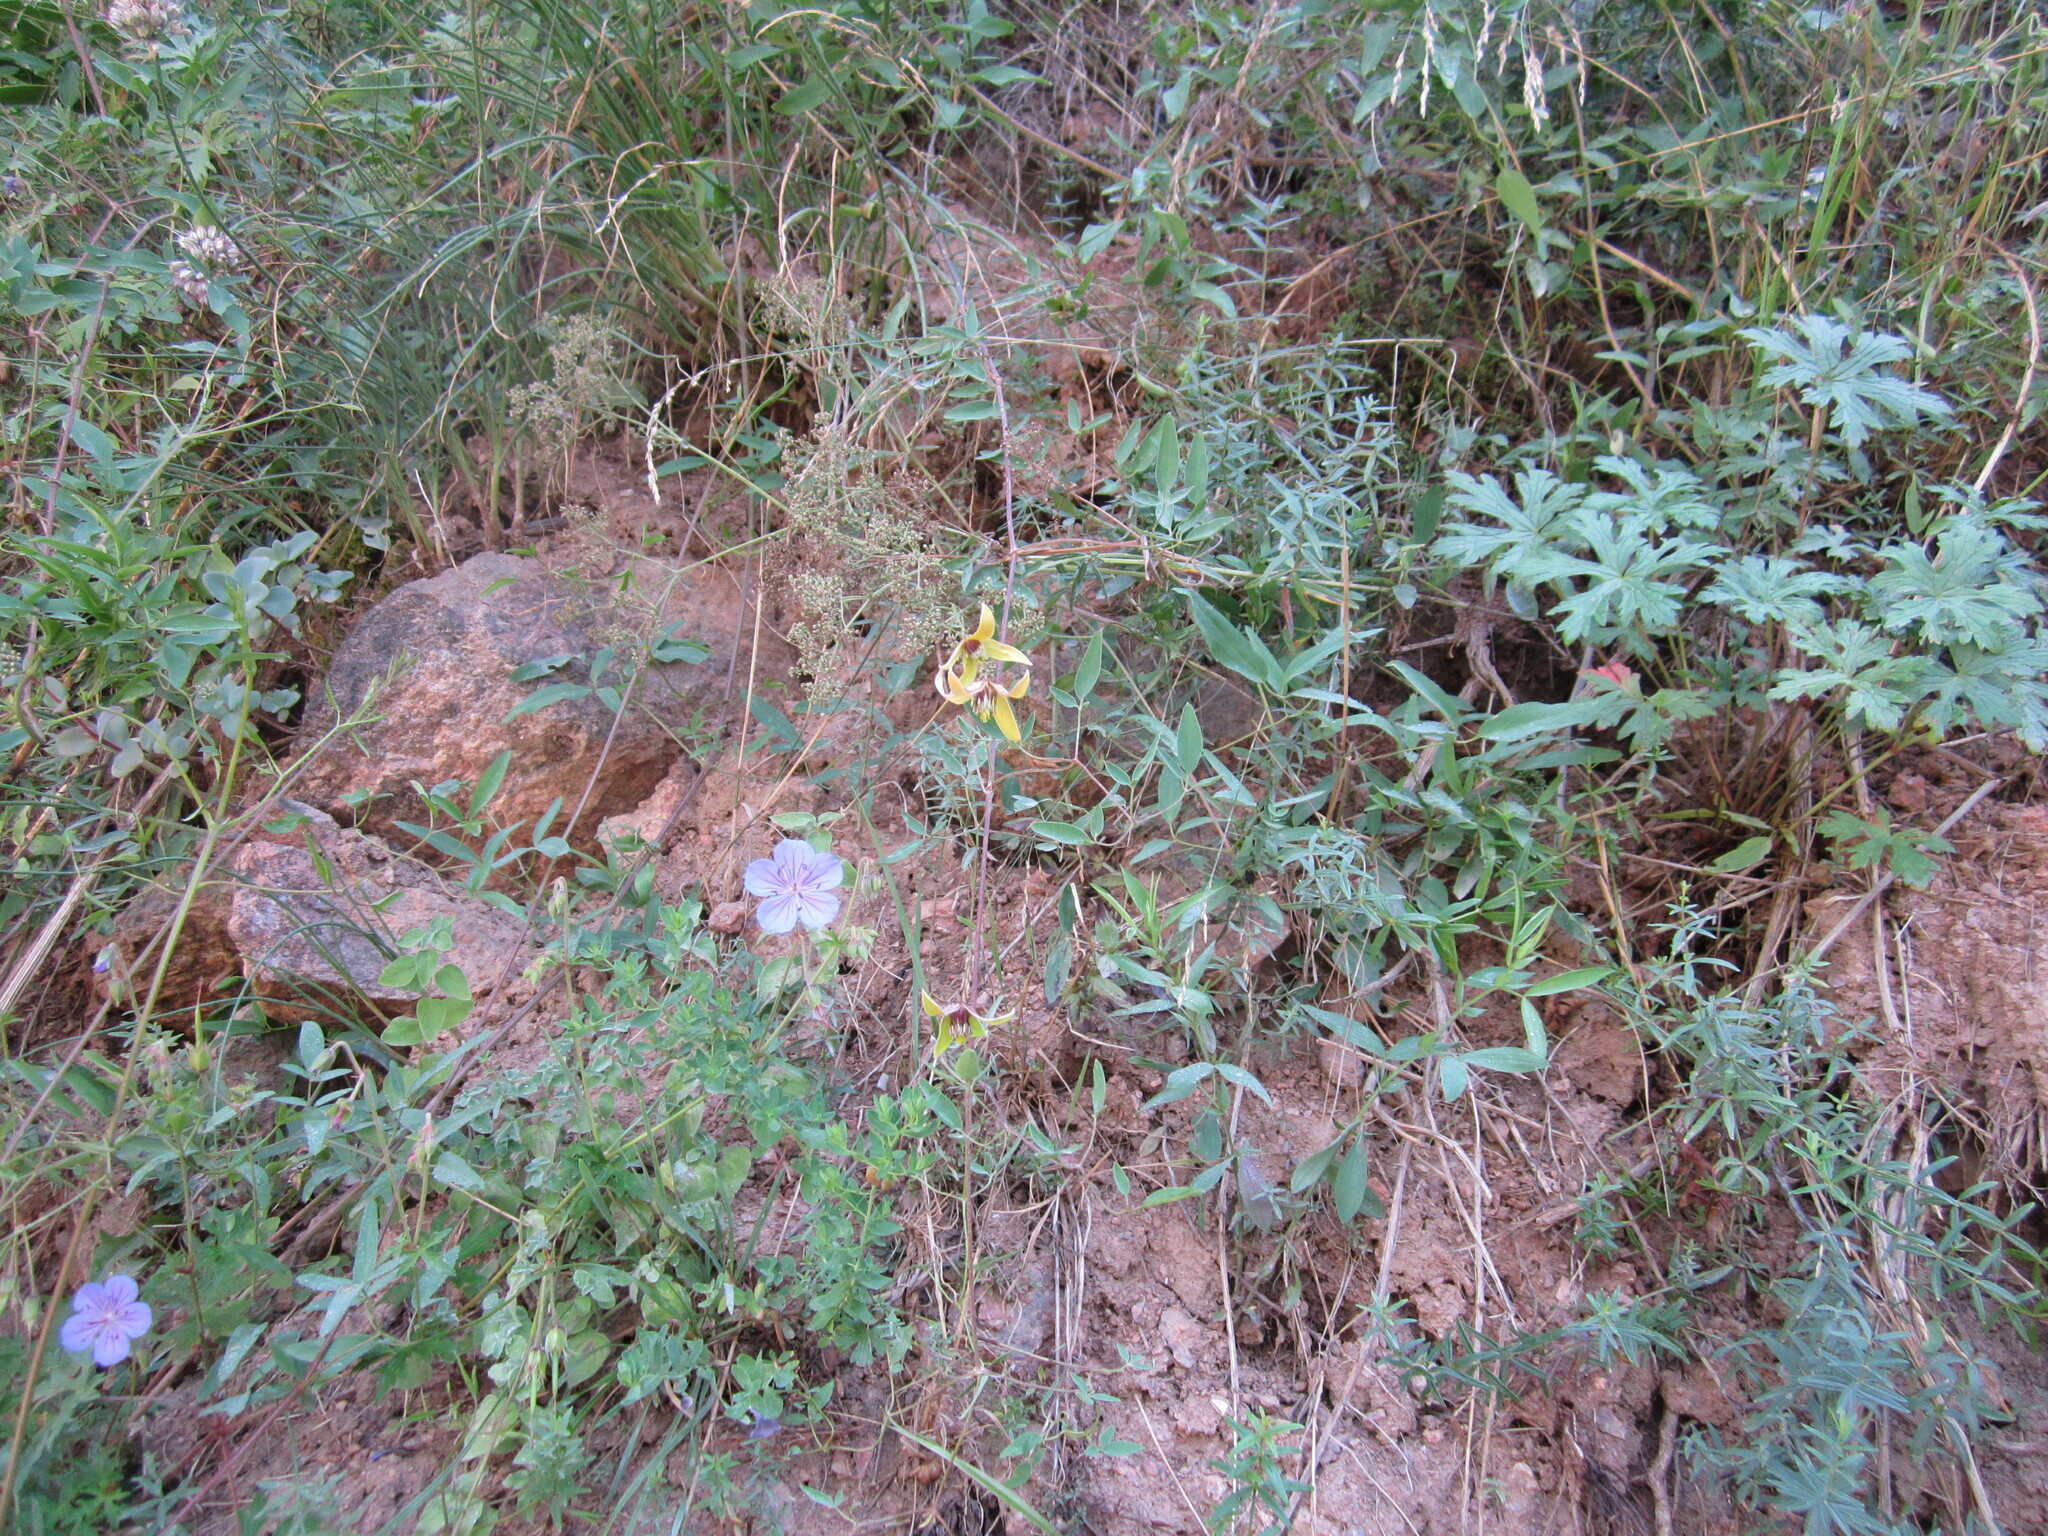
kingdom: Plantae
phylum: Tracheophyta
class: Magnoliopsida
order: Ranunculales
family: Ranunculaceae
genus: Clematis
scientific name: Clematis orientalis
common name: Oriental virgin's-bower
